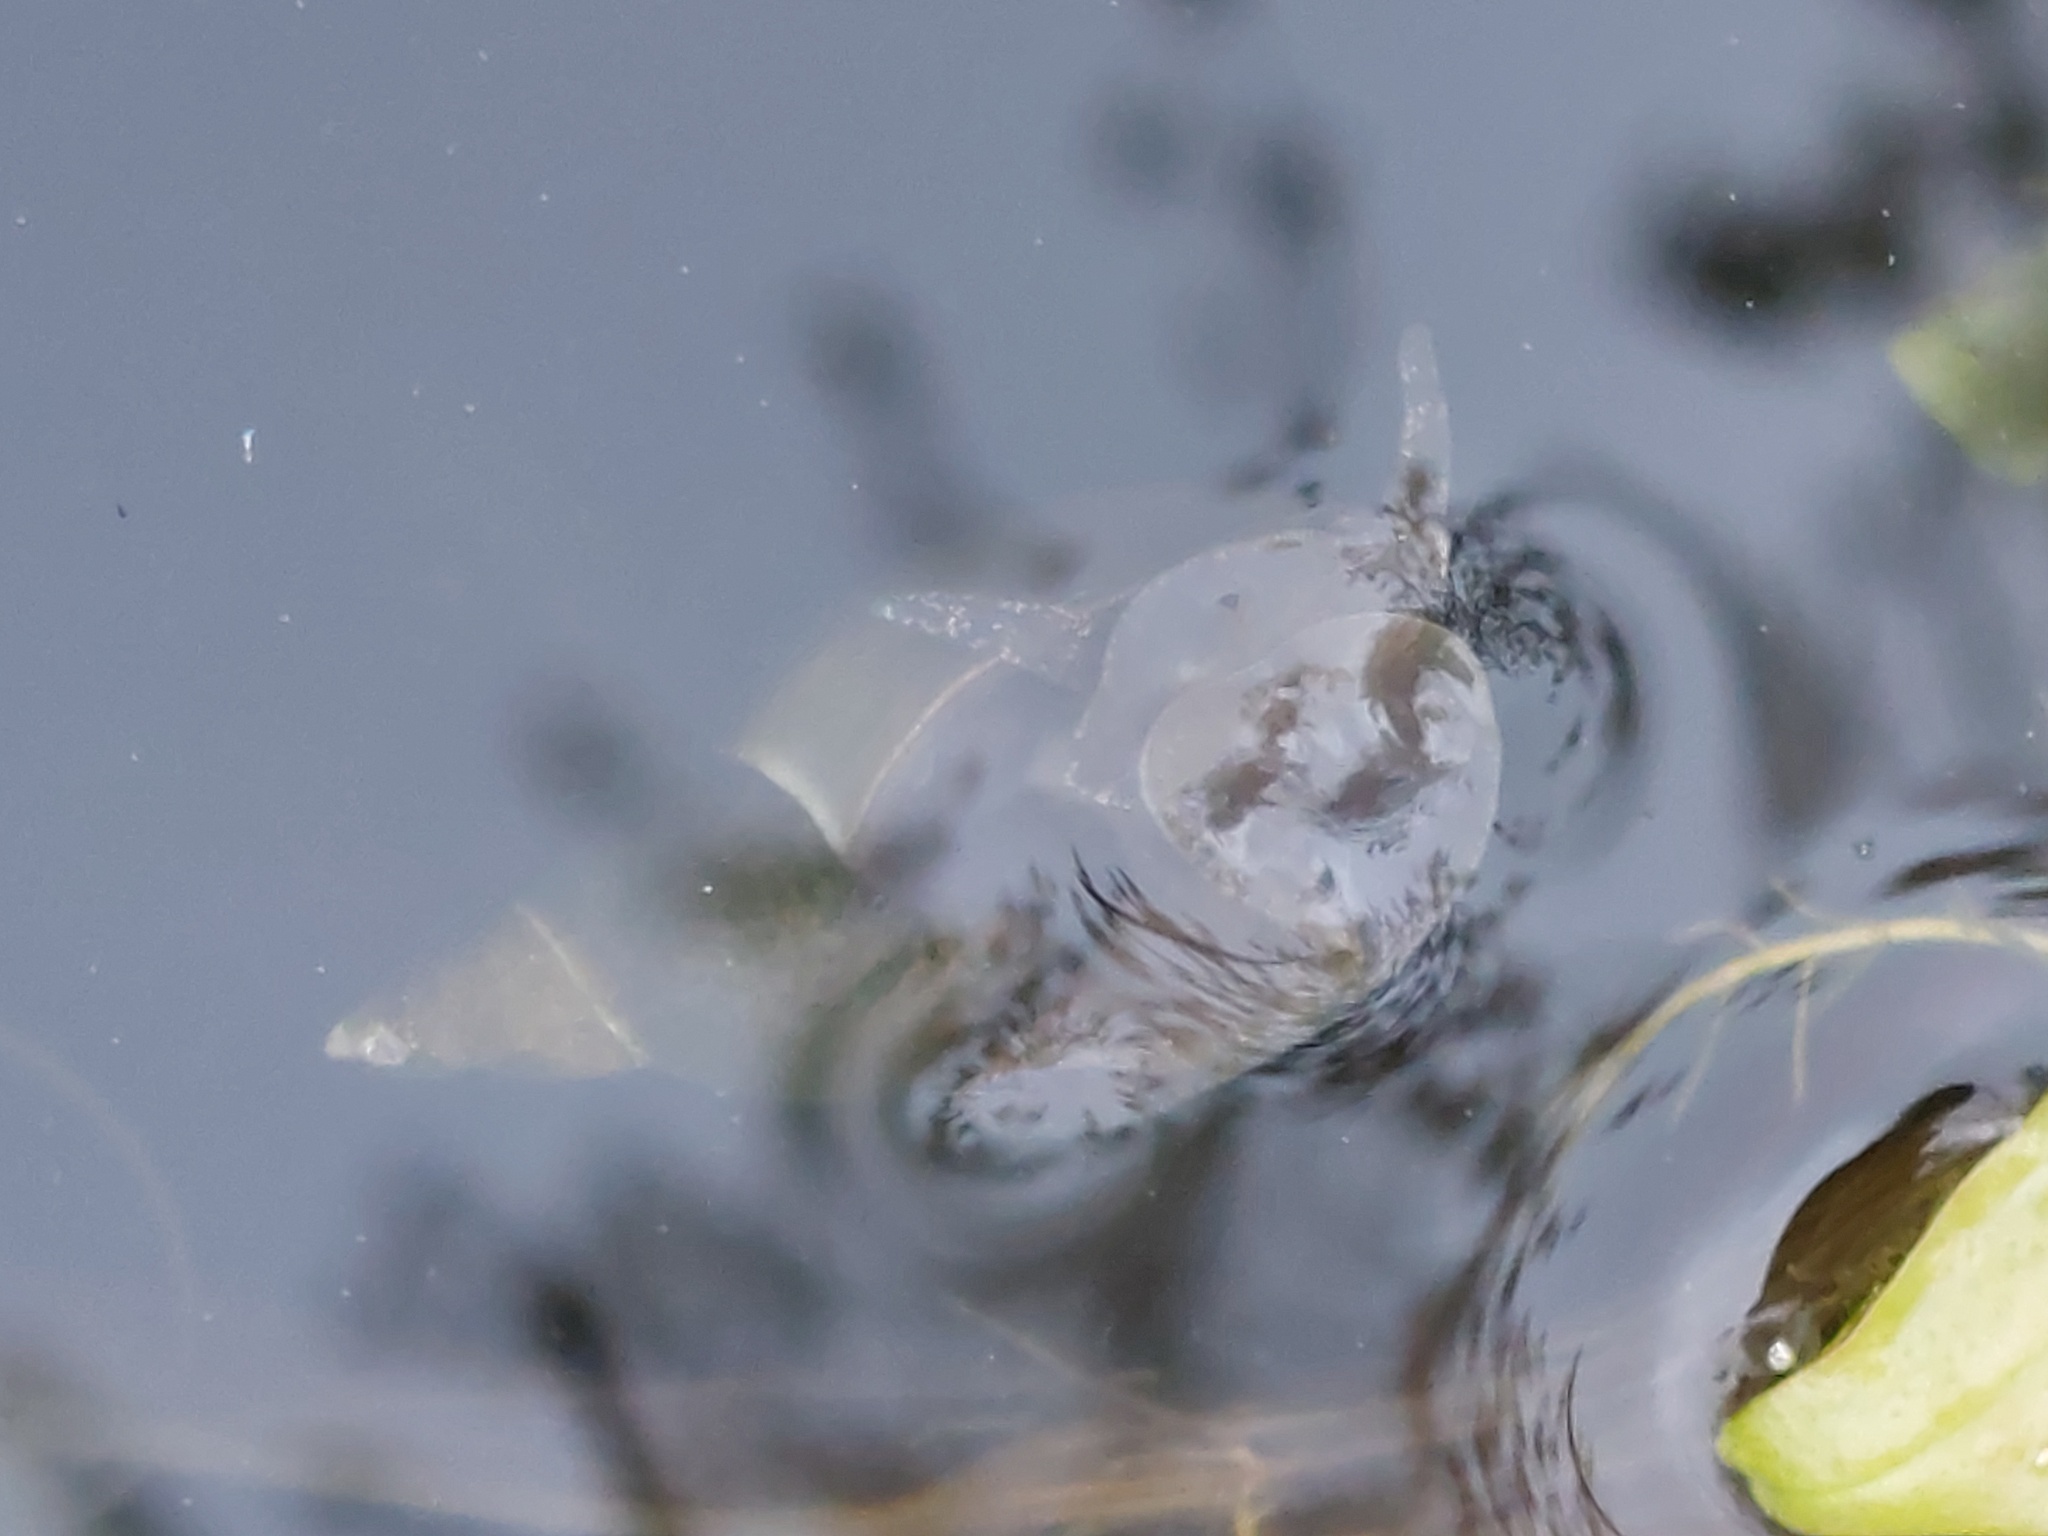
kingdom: Animalia
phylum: Mollusca
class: Gastropoda
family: Lymnaeidae
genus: Lymnaea
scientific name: Lymnaea stagnalis
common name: Great pond snail
